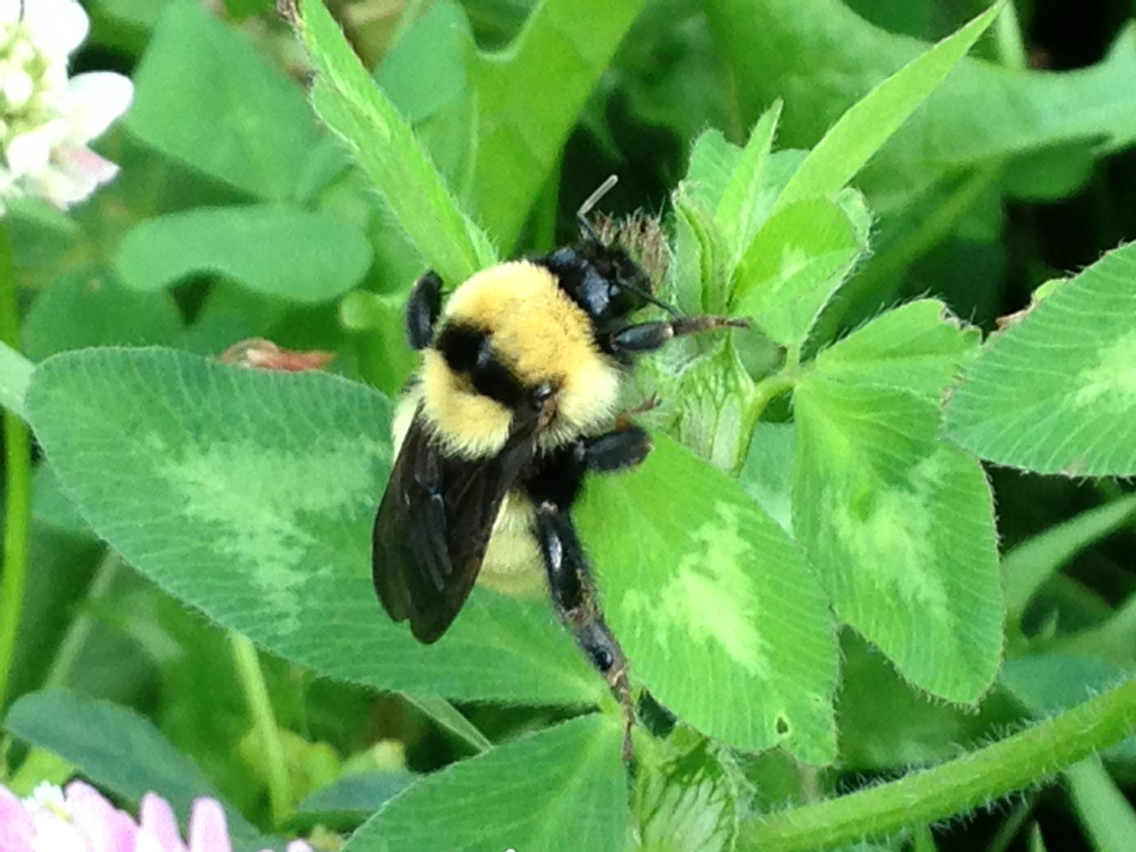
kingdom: Animalia
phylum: Arthropoda
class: Insecta
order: Hymenoptera
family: Apidae
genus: Bombus
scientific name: Bombus fervidus
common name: Yellow bumble bee
